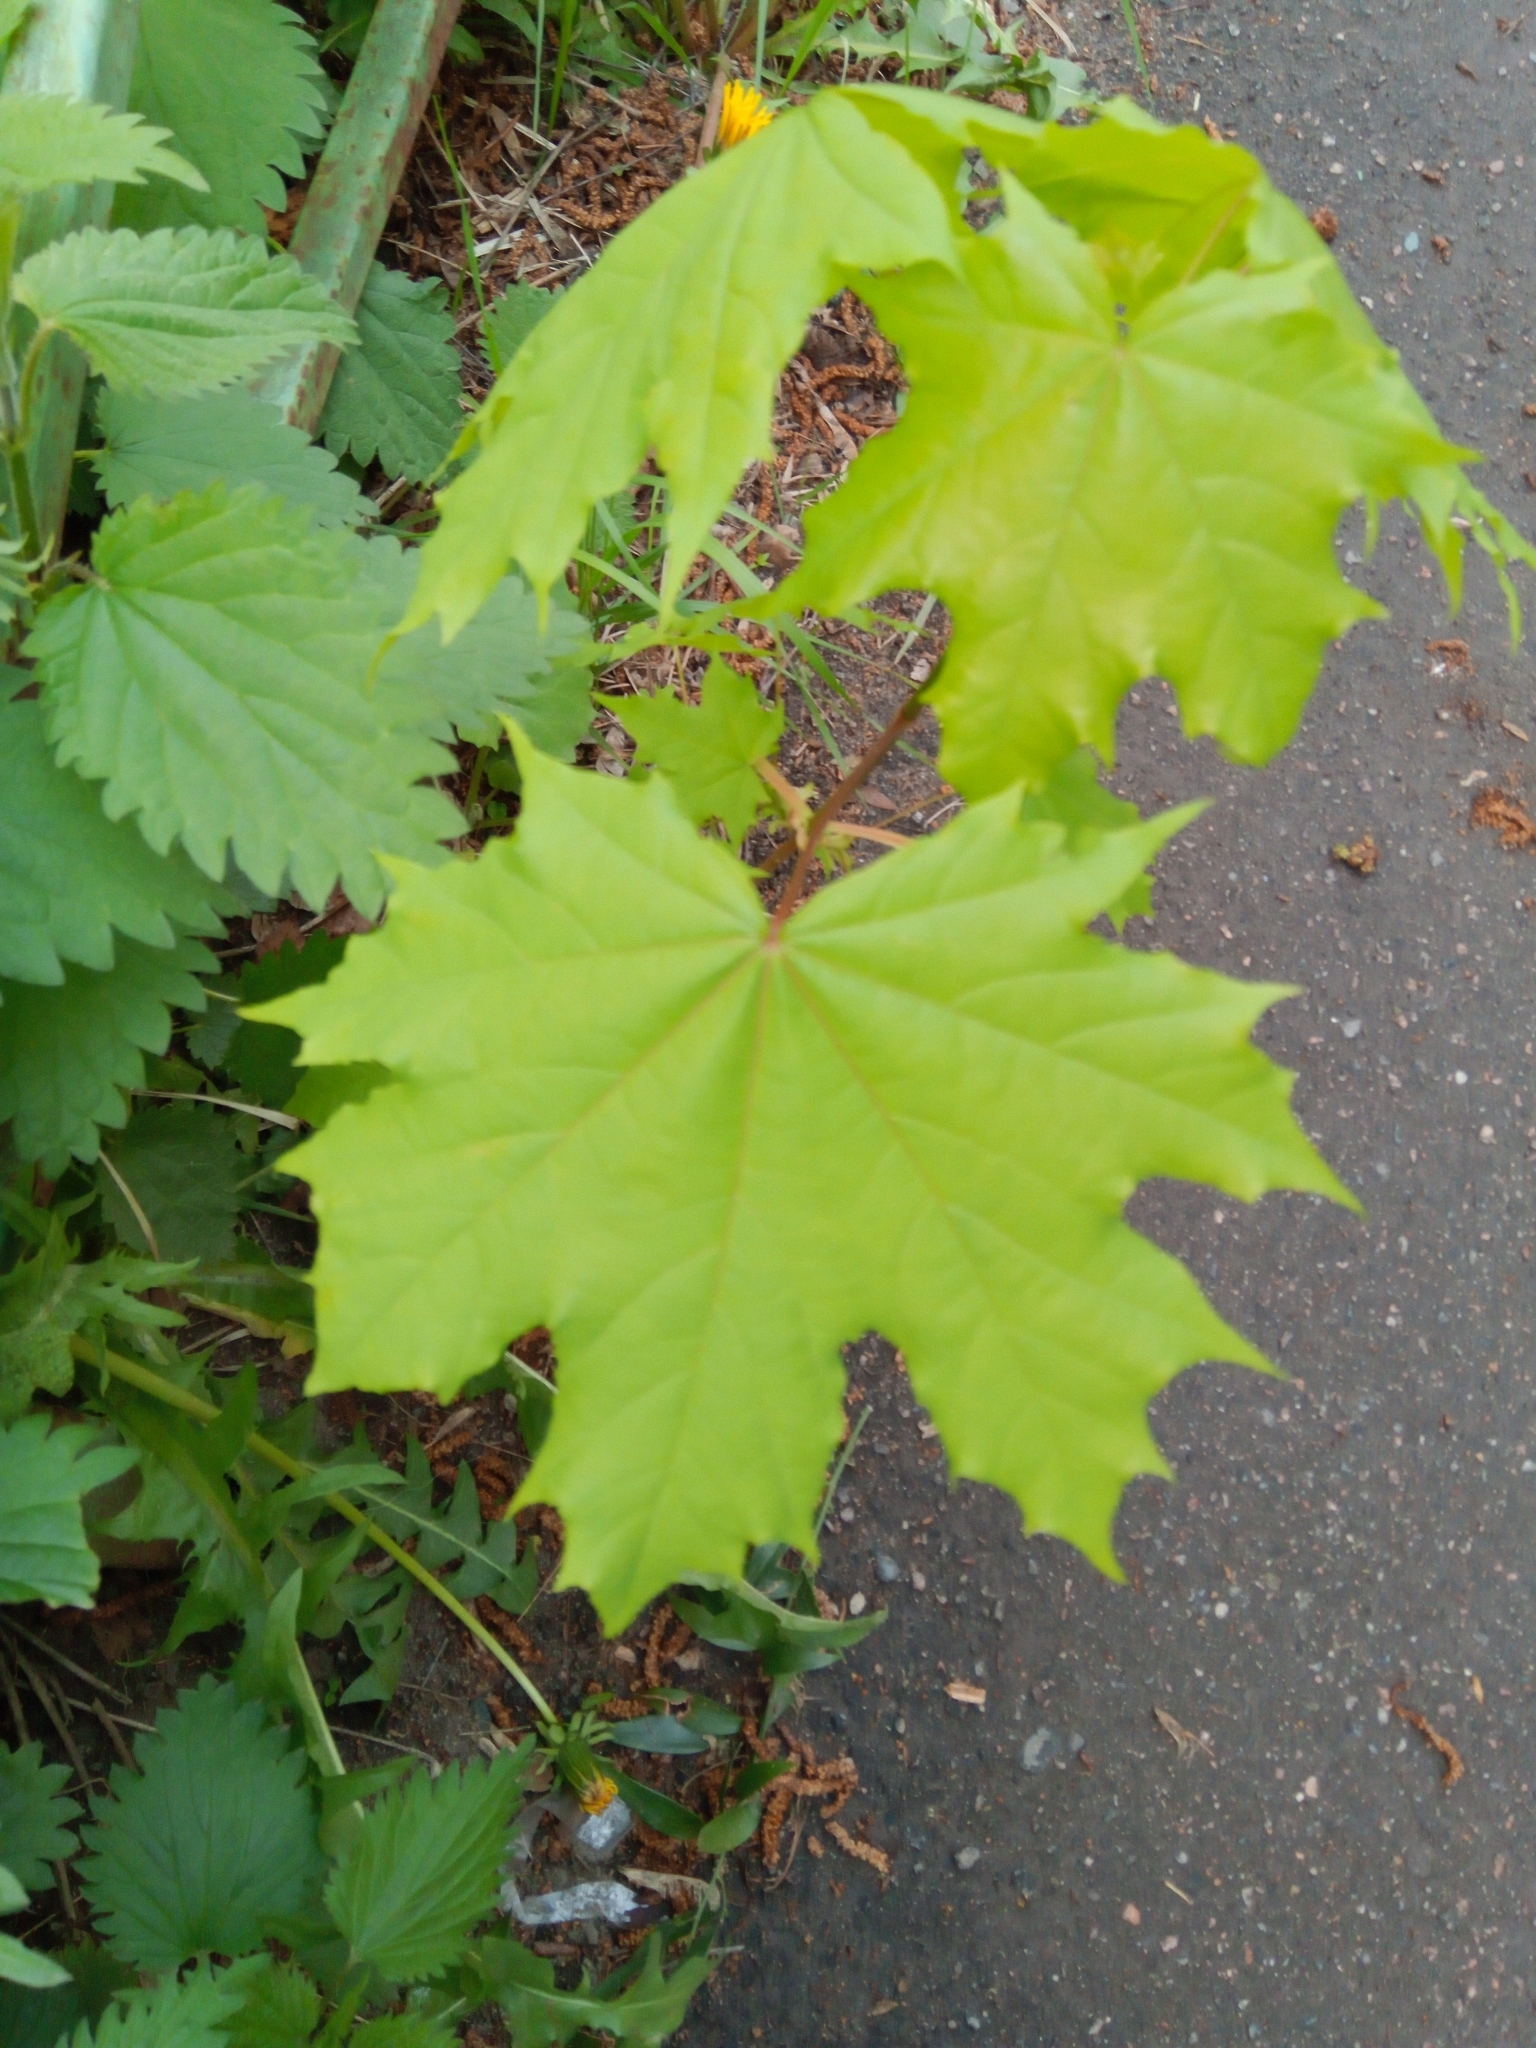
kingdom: Plantae
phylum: Tracheophyta
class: Magnoliopsida
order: Sapindales
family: Sapindaceae
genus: Acer
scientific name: Acer platanoides
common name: Norway maple
